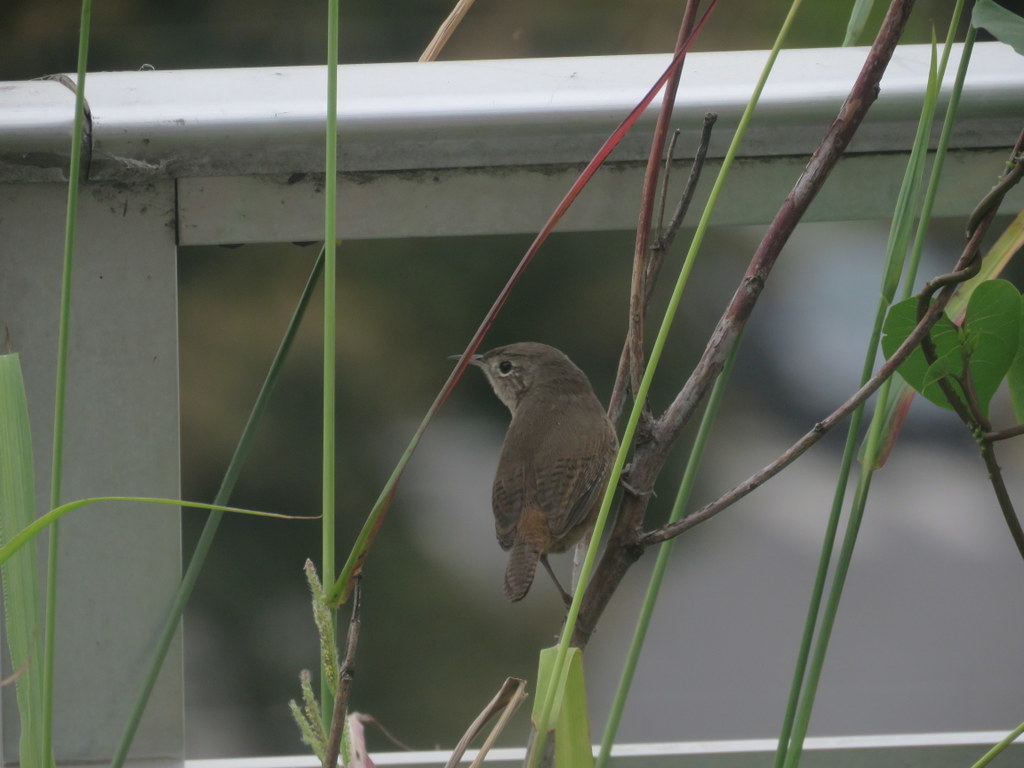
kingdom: Animalia
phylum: Chordata
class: Aves
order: Passeriformes
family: Troglodytidae
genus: Troglodytes
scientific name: Troglodytes aedon
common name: House wren
